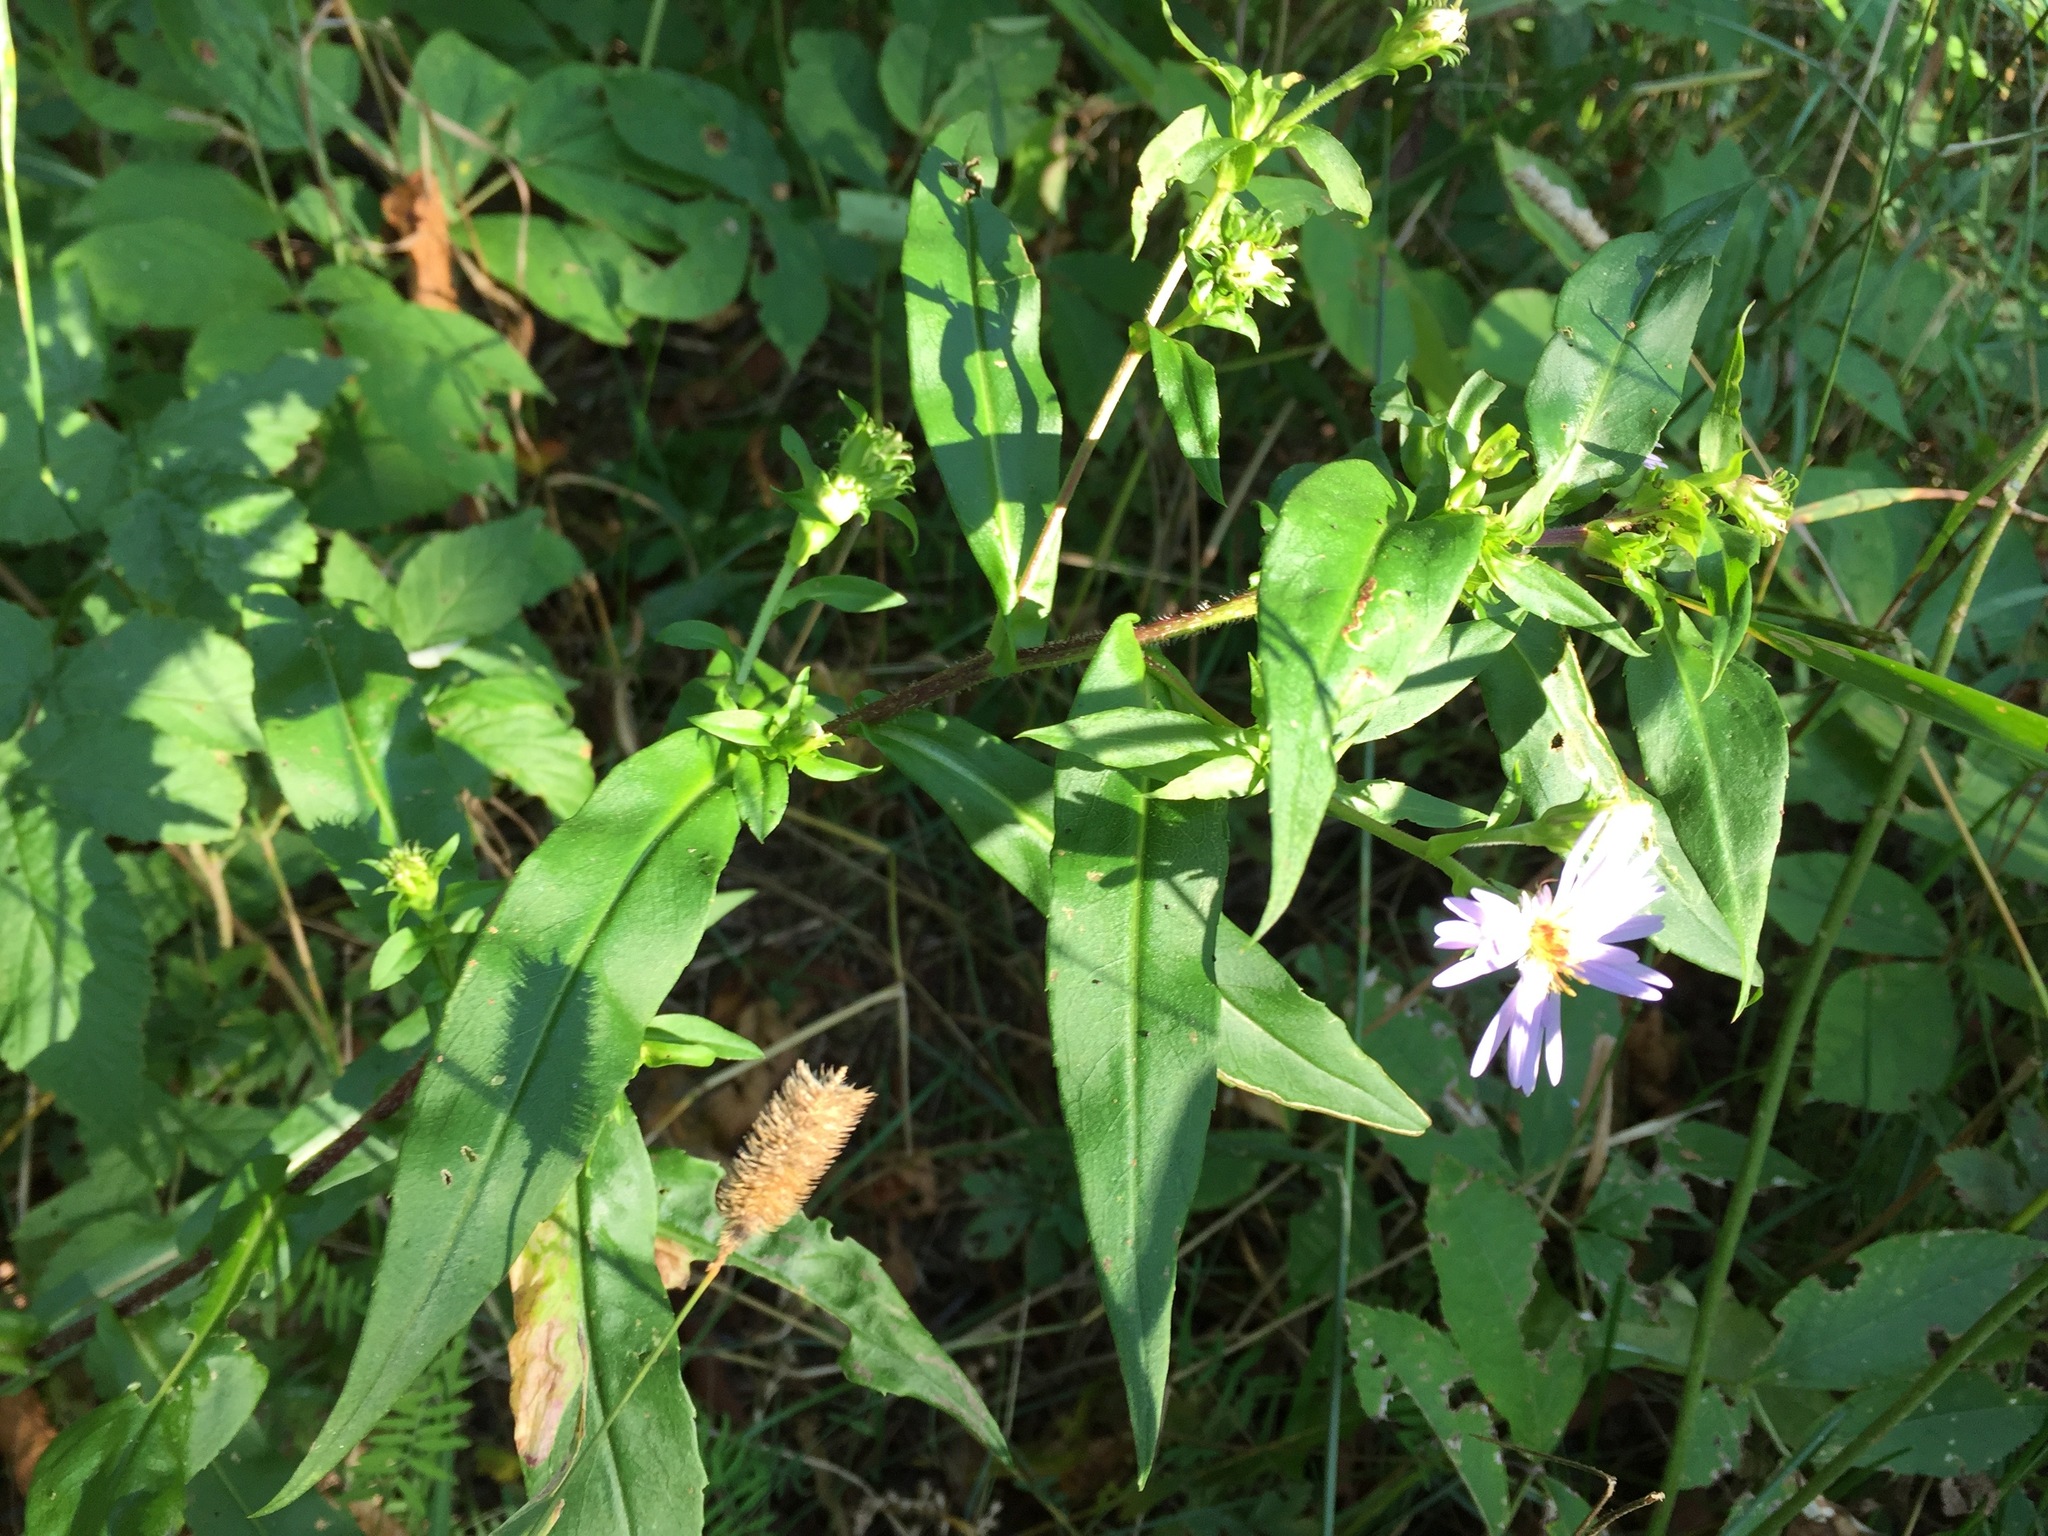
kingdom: Plantae
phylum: Tracheophyta
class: Magnoliopsida
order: Asterales
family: Asteraceae
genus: Symphyotrichum
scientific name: Symphyotrichum puniceum
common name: Bog aster
